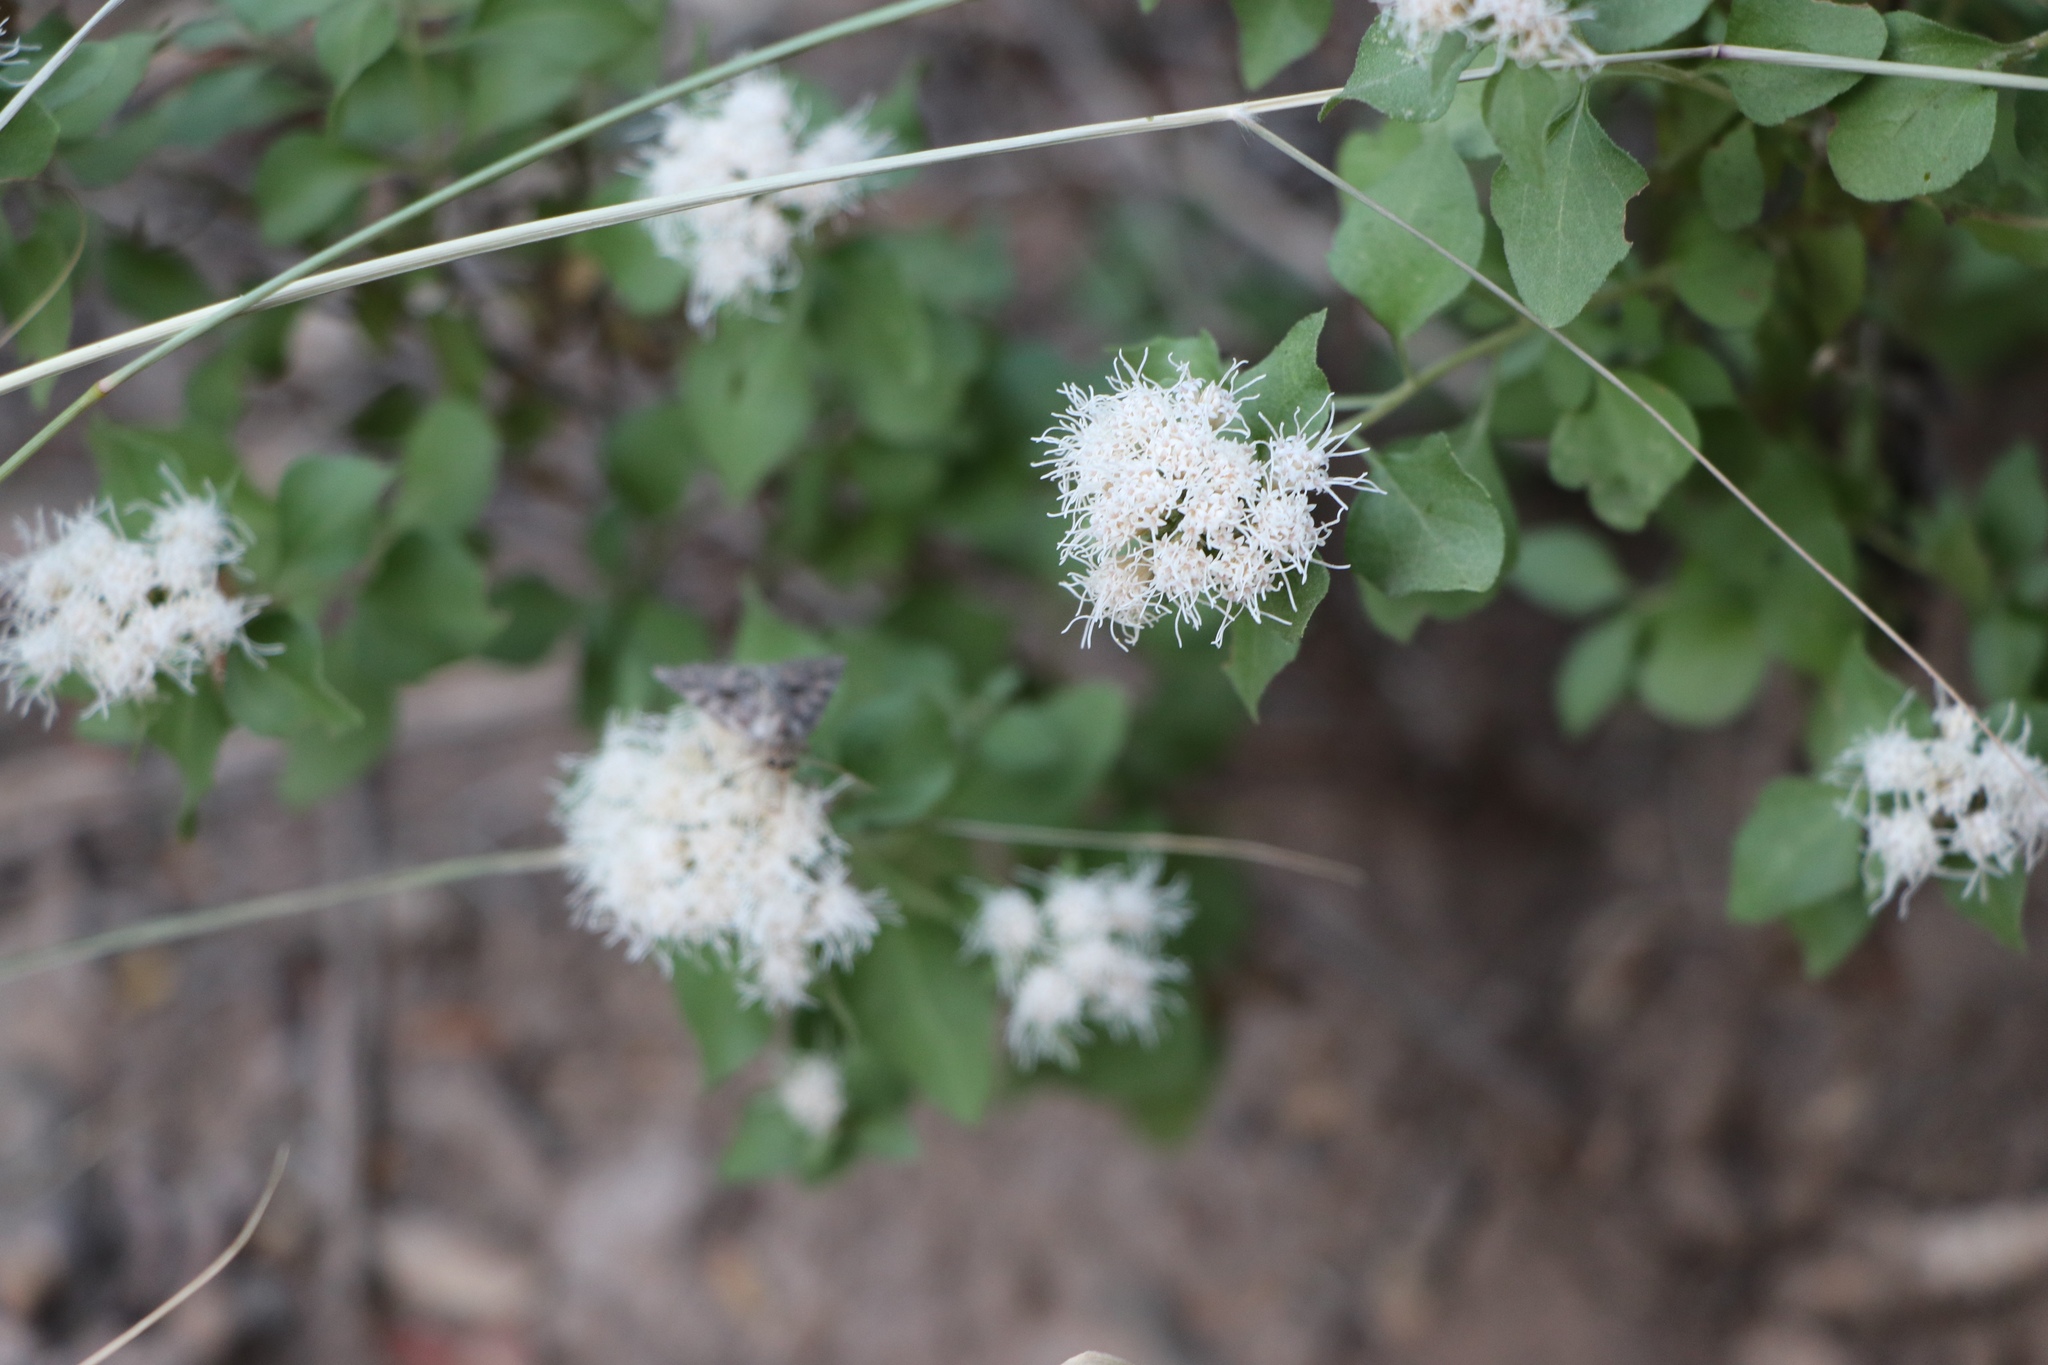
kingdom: Plantae
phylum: Tracheophyta
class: Magnoliopsida
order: Asterales
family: Asteraceae
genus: Ageratina
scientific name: Ageratina wrightii
